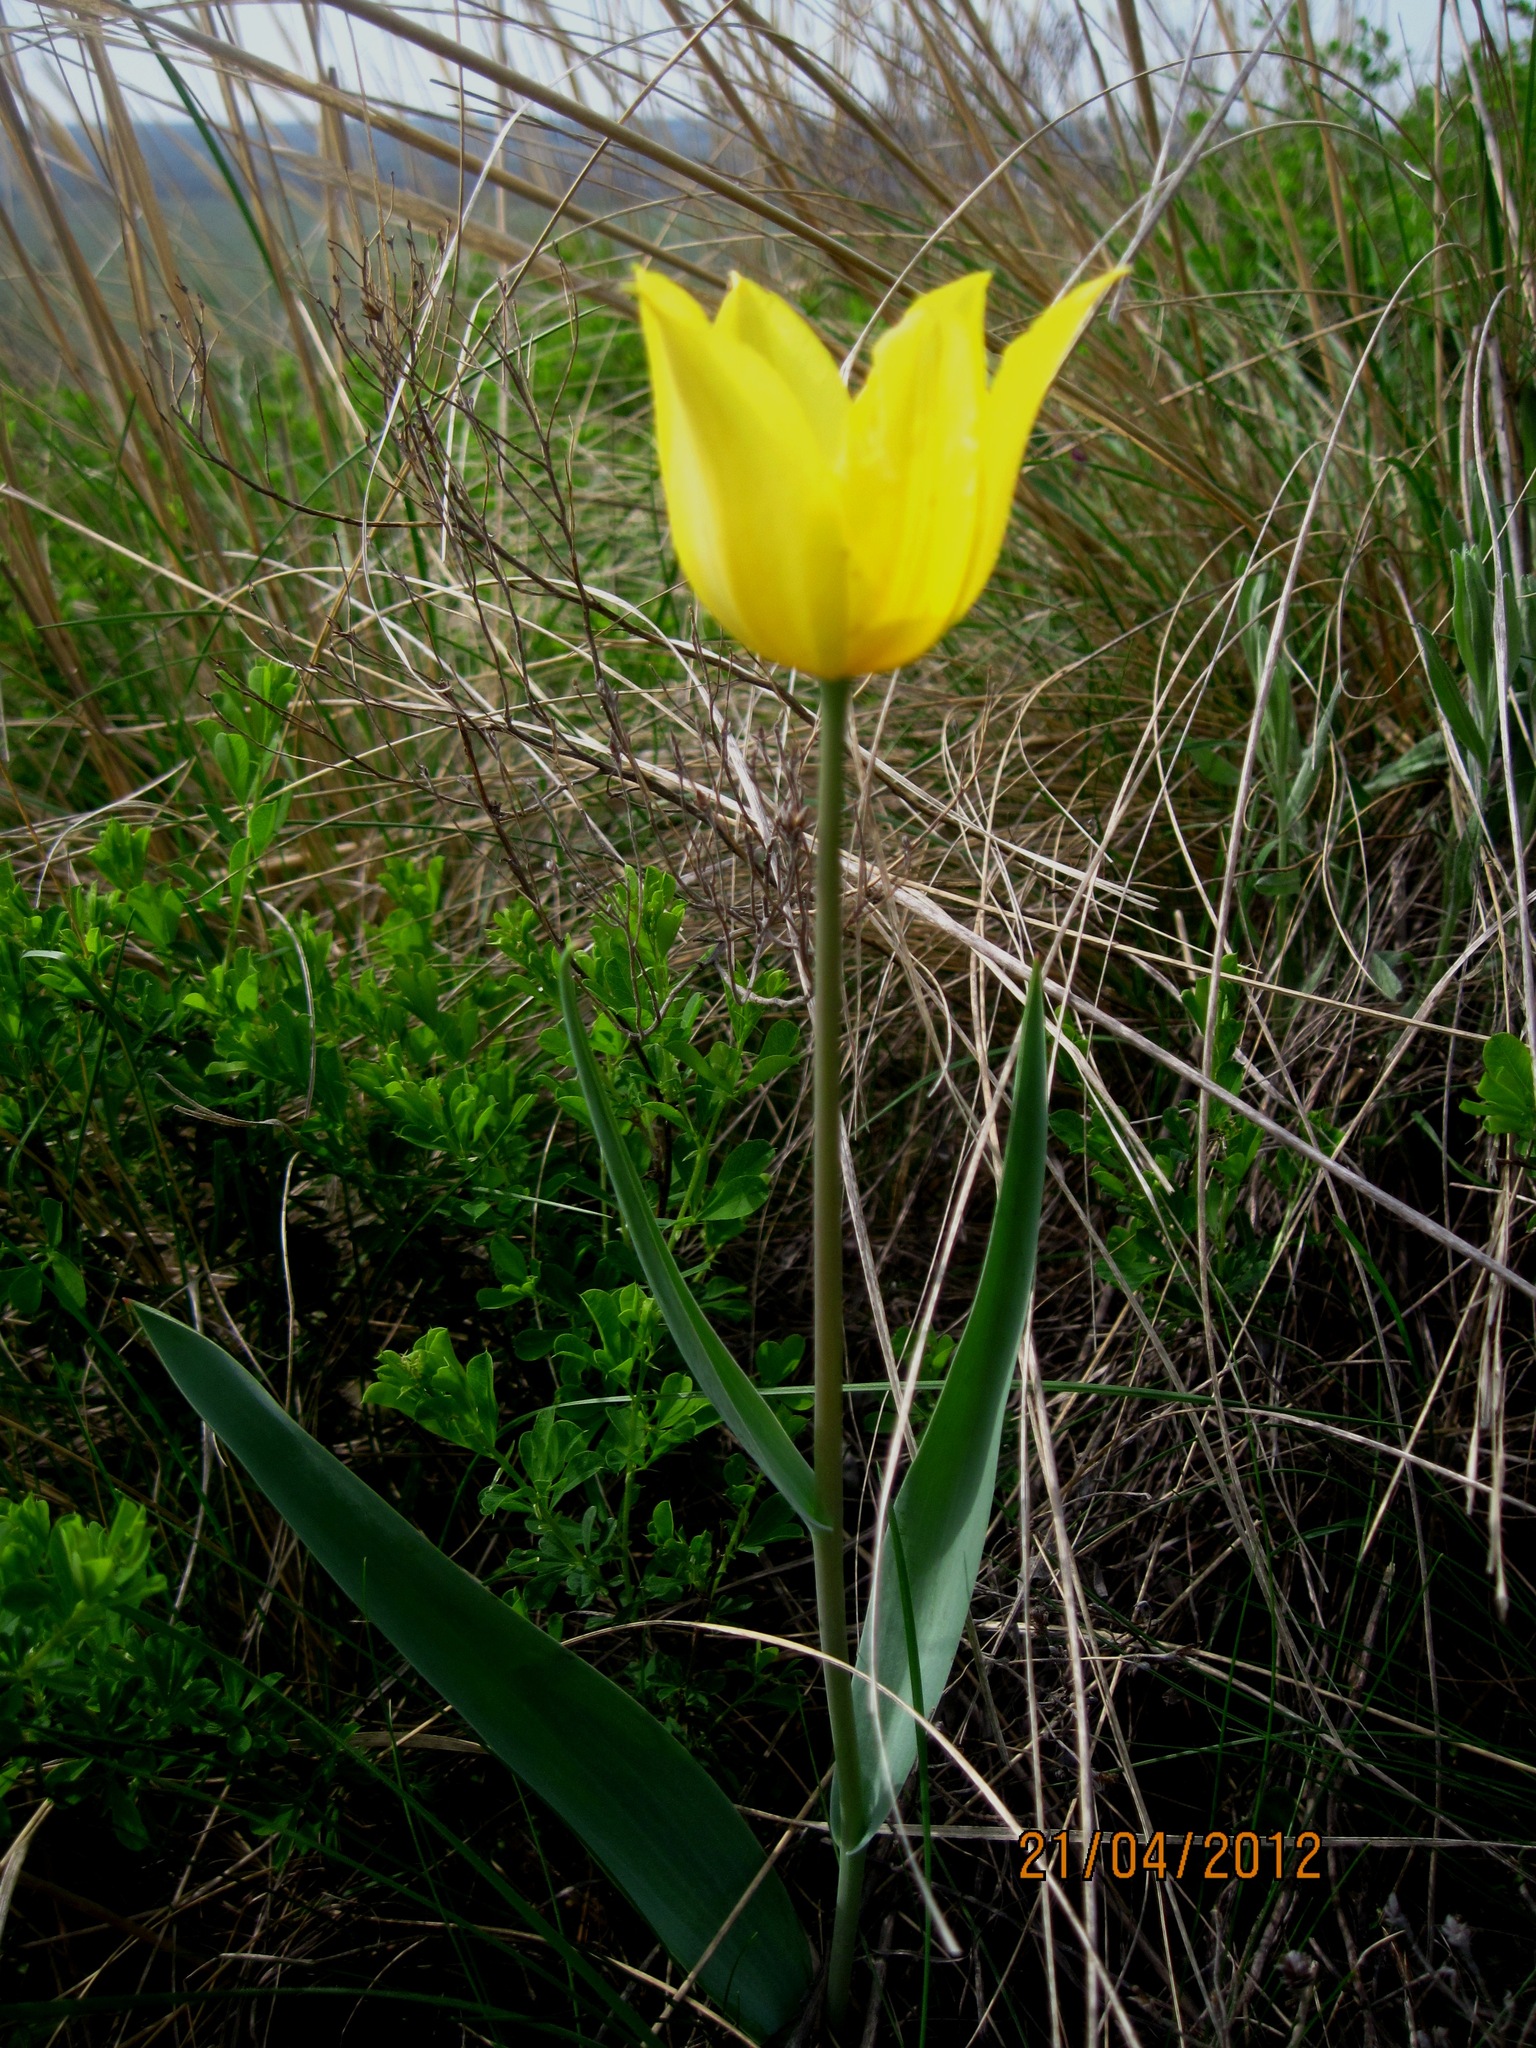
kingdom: Plantae
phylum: Tracheophyta
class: Liliopsida
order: Liliales
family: Liliaceae
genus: Tulipa
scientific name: Tulipa suaveolens
